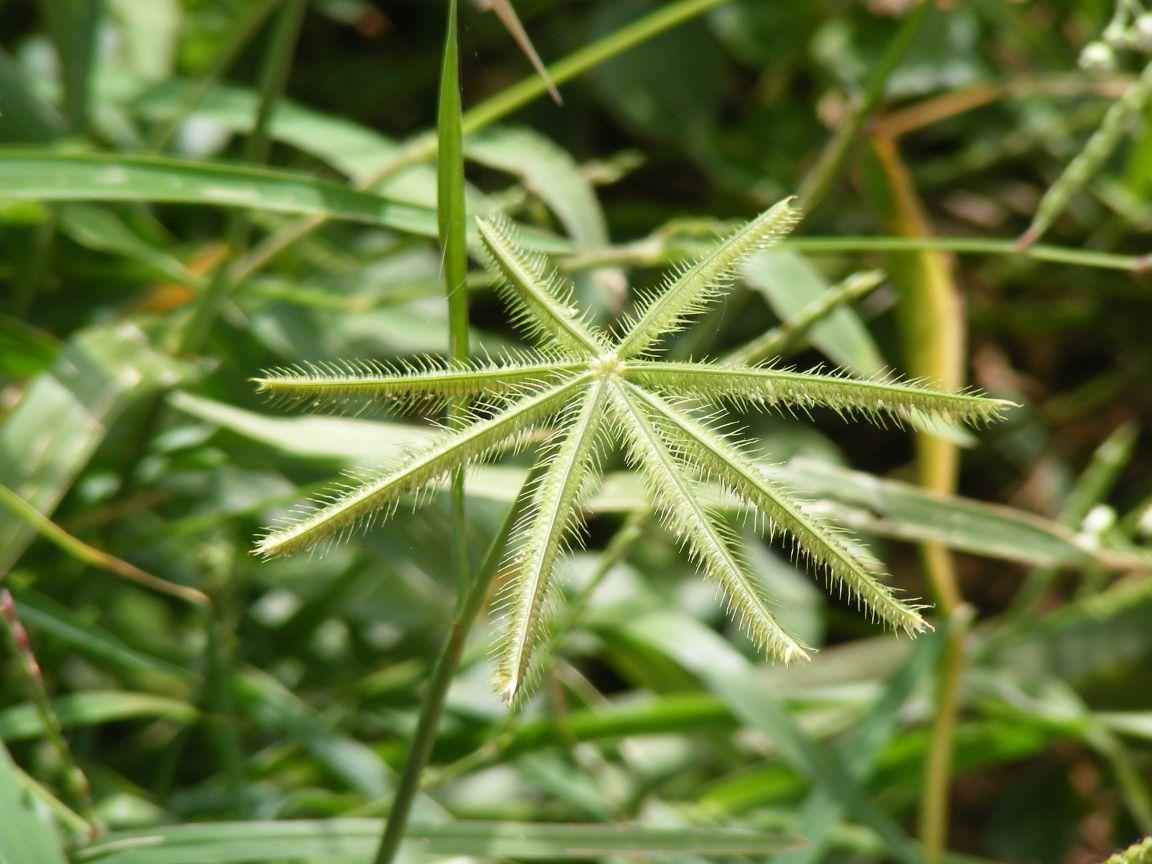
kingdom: Plantae
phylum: Tracheophyta
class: Liliopsida
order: Poales
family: Poaceae
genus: Dactyloctenium
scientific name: Dactyloctenium giganteum
